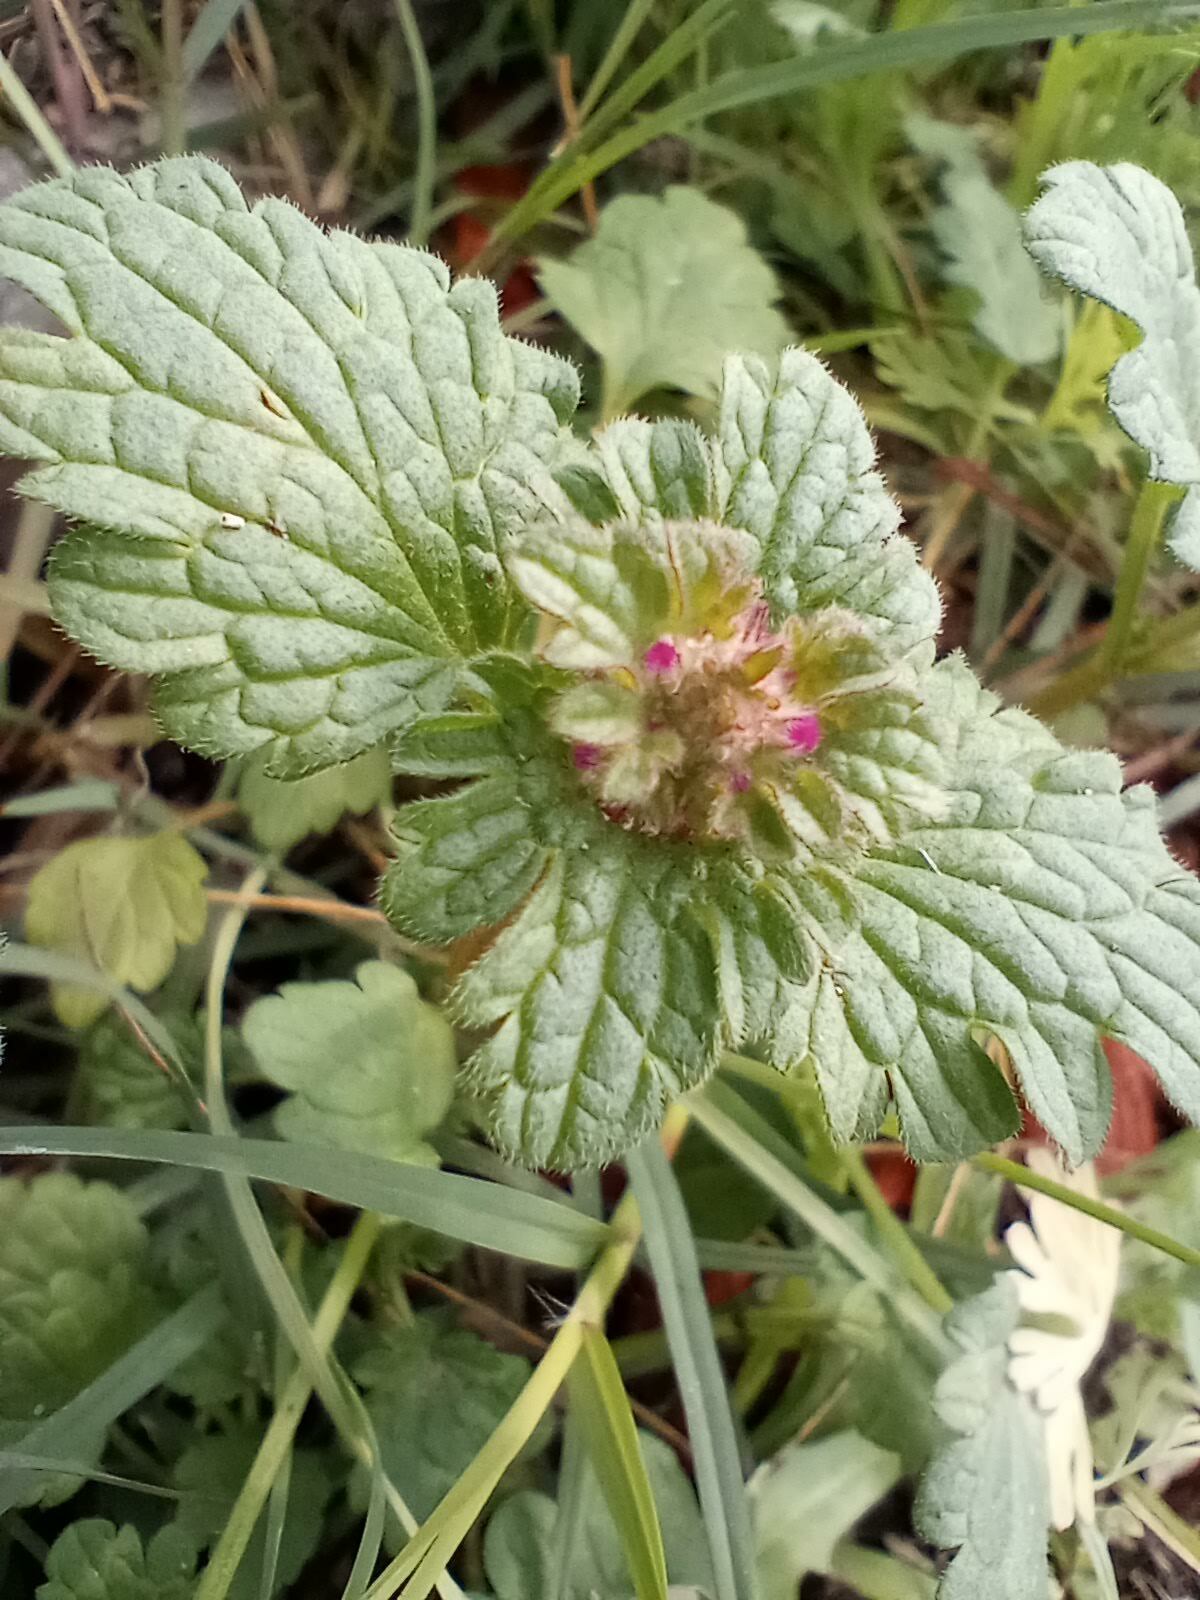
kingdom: Plantae
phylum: Tracheophyta
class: Magnoliopsida
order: Lamiales
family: Lamiaceae
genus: Lamium
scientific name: Lamium amplexicaule
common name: Henbit dead-nettle
